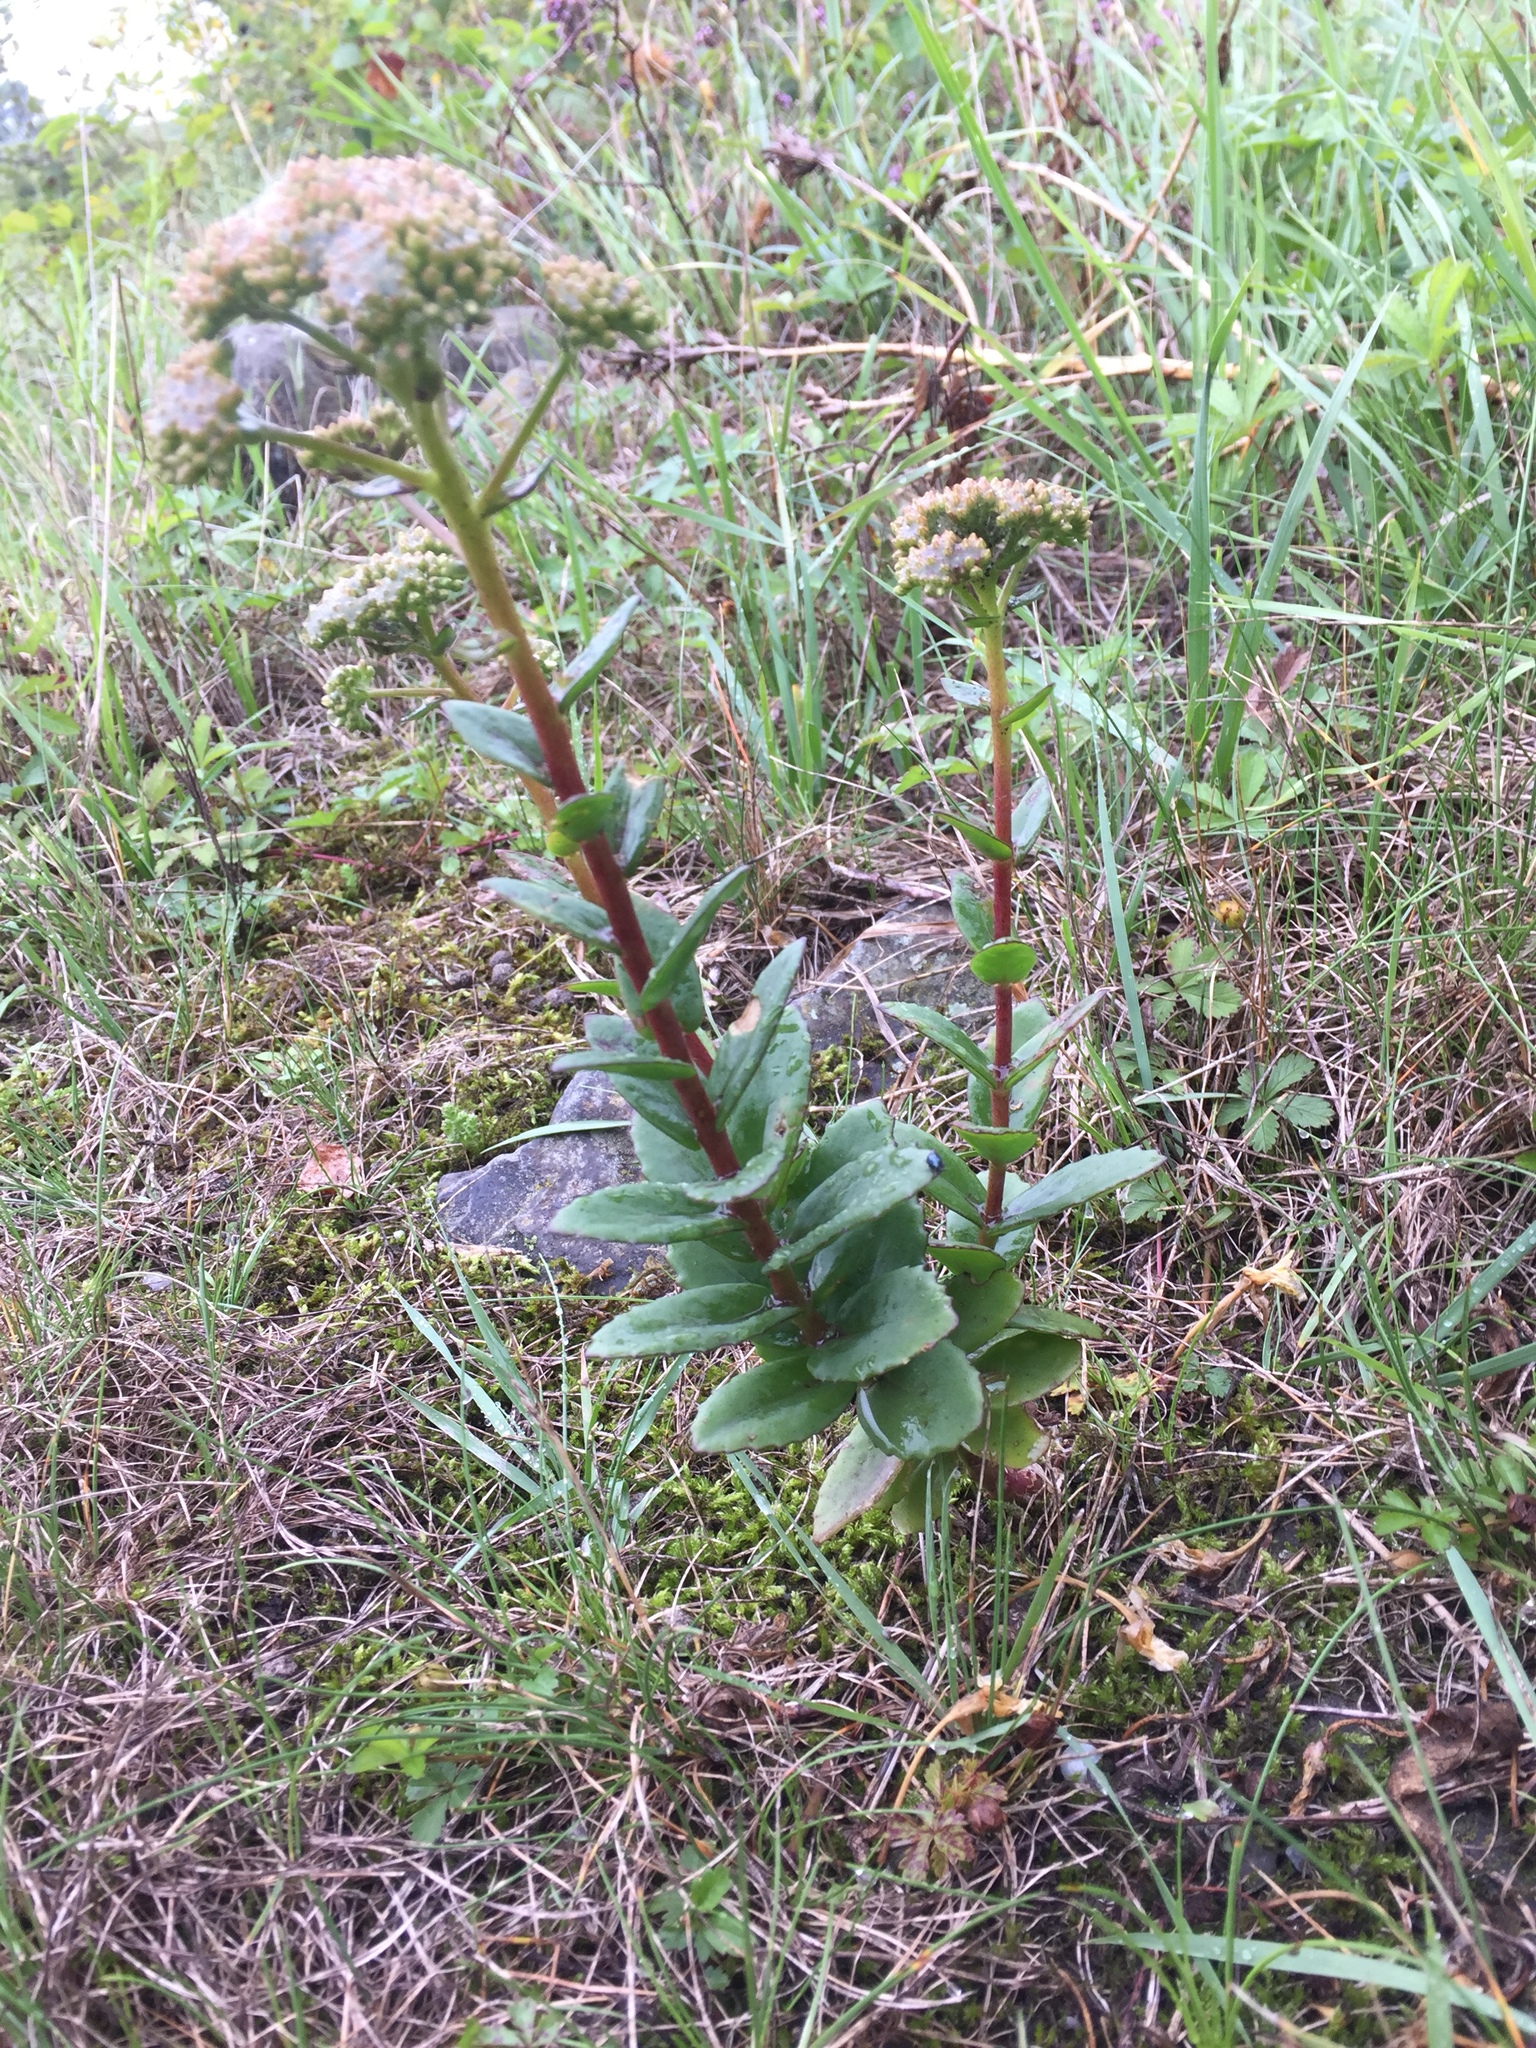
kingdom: Plantae
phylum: Tracheophyta
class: Magnoliopsida
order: Saxifragales
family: Crassulaceae
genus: Hylotelephium
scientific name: Hylotelephium telephium
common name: Live-forever
